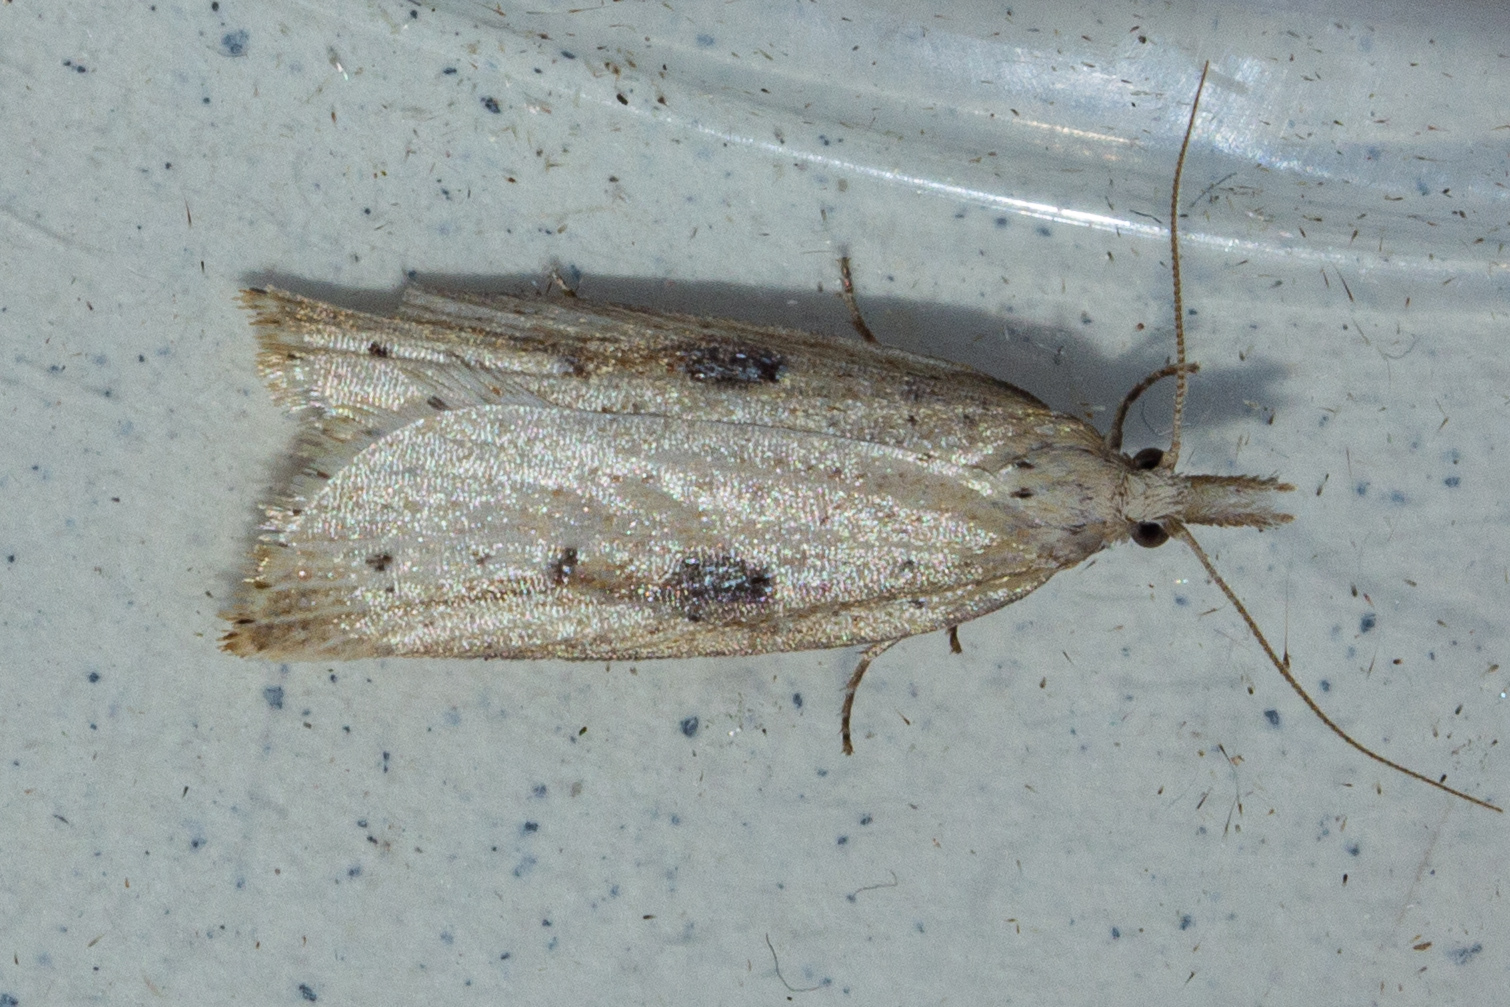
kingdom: Animalia
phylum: Arthropoda
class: Insecta
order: Lepidoptera
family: Tortricidae
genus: Apoctena
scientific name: Apoctena persecta
